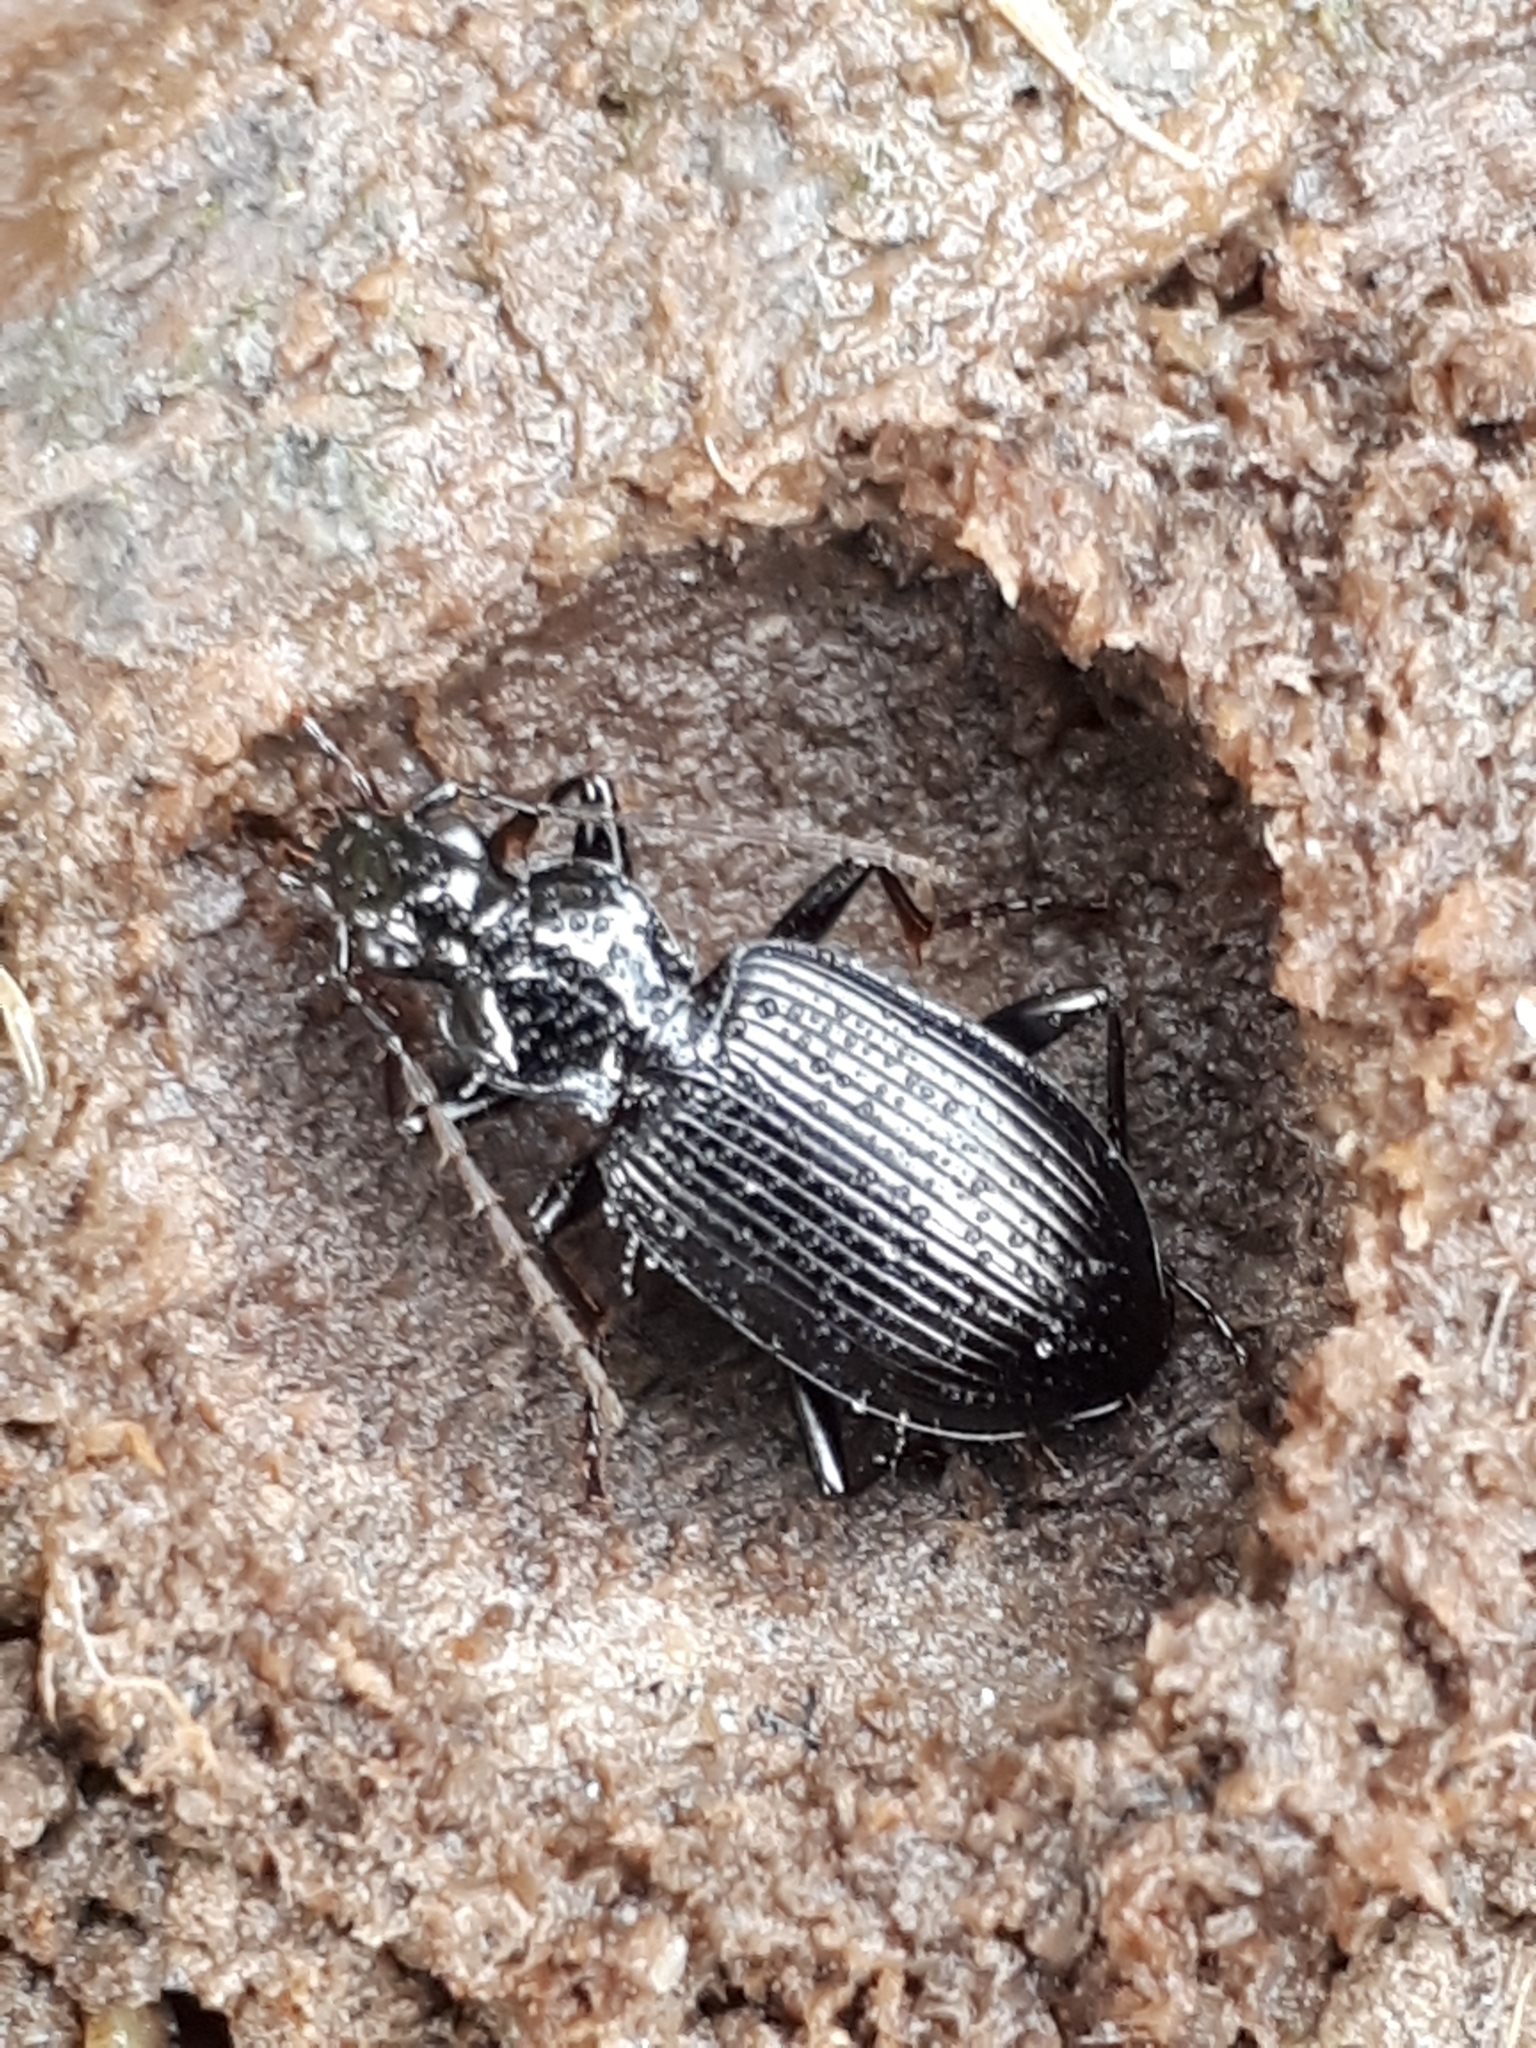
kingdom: Animalia
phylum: Arthropoda
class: Insecta
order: Coleoptera
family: Carabidae
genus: Platynus
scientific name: Platynus assimilis
